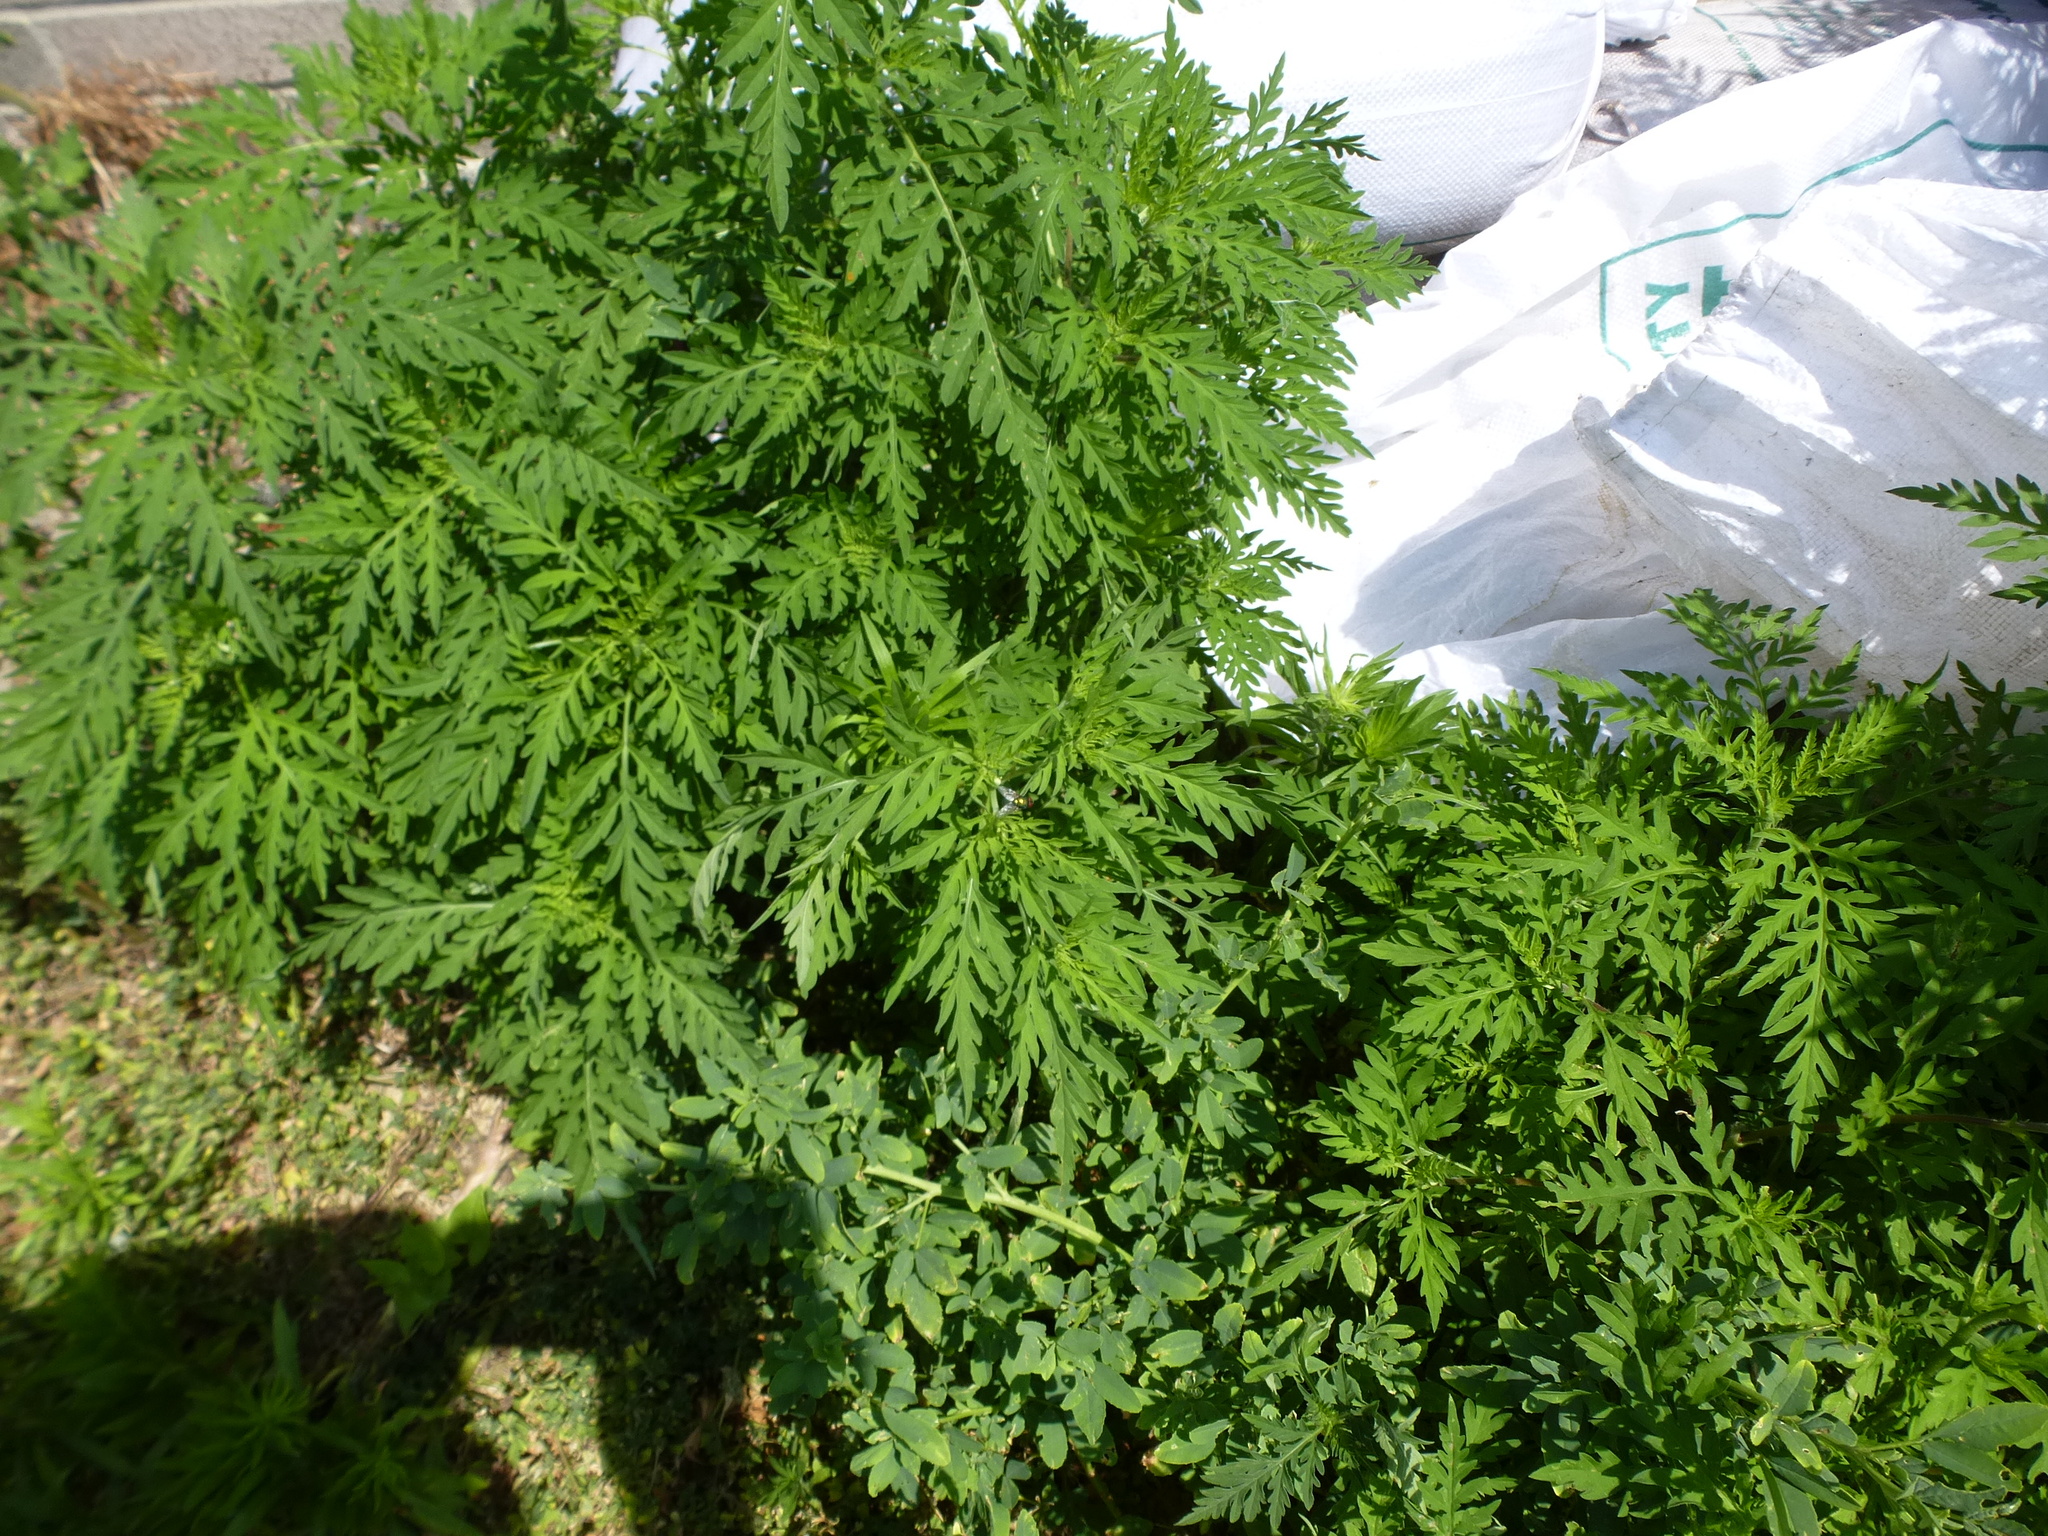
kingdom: Plantae
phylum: Tracheophyta
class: Magnoliopsida
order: Asterales
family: Asteraceae
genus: Ambrosia
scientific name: Ambrosia artemisiifolia
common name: Annual ragweed
